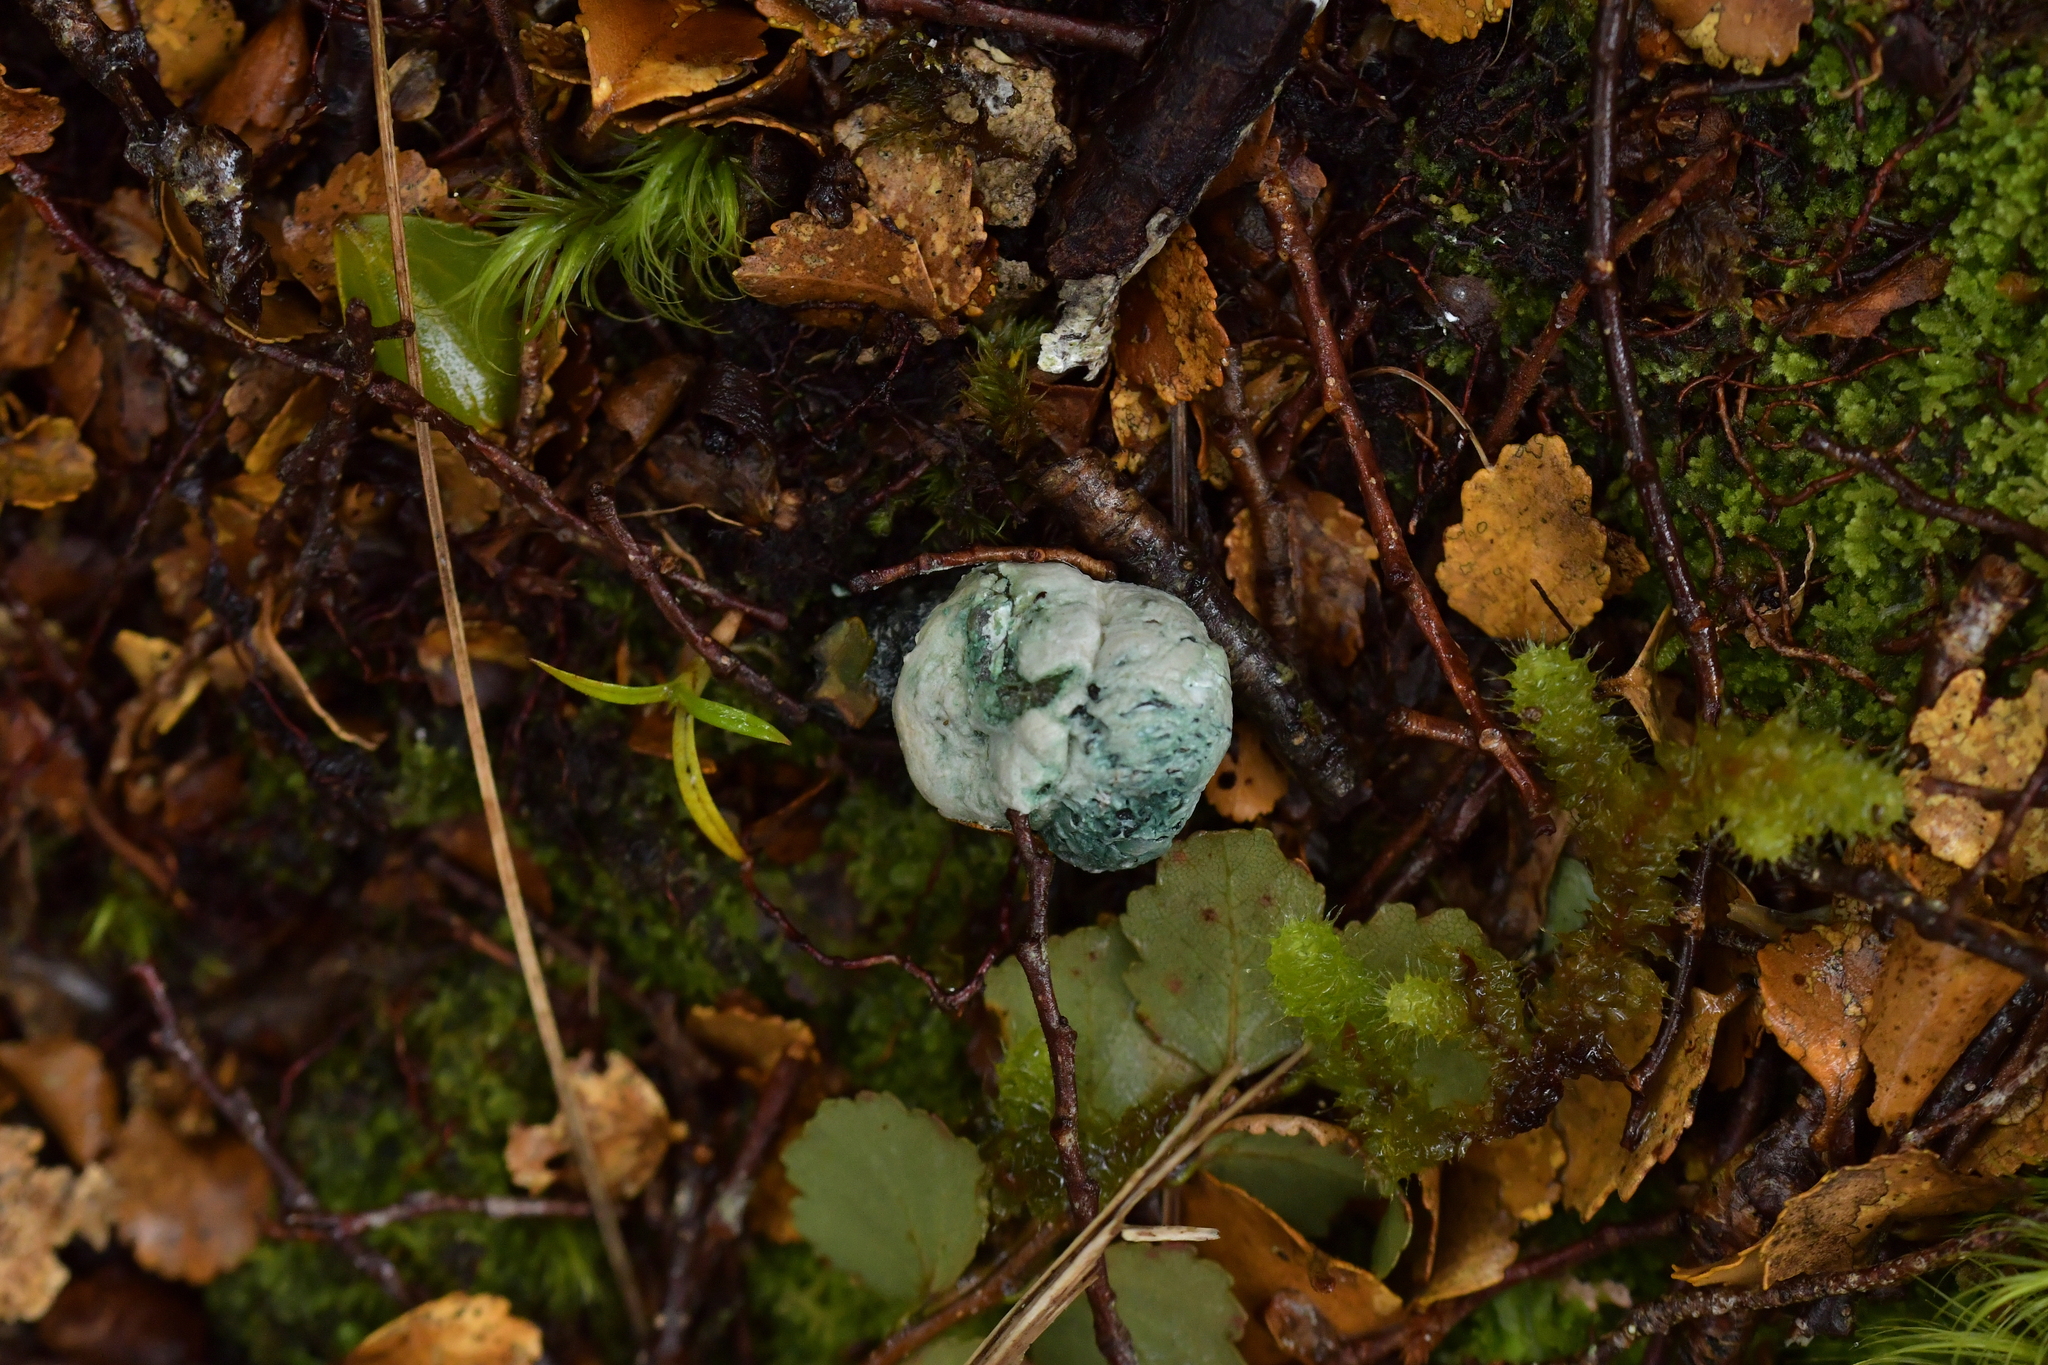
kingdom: Fungi
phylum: Basidiomycota
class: Agaricomycetes
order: Boletales
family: Boletaceae
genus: Leccinum
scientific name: Leccinum pachyderme
